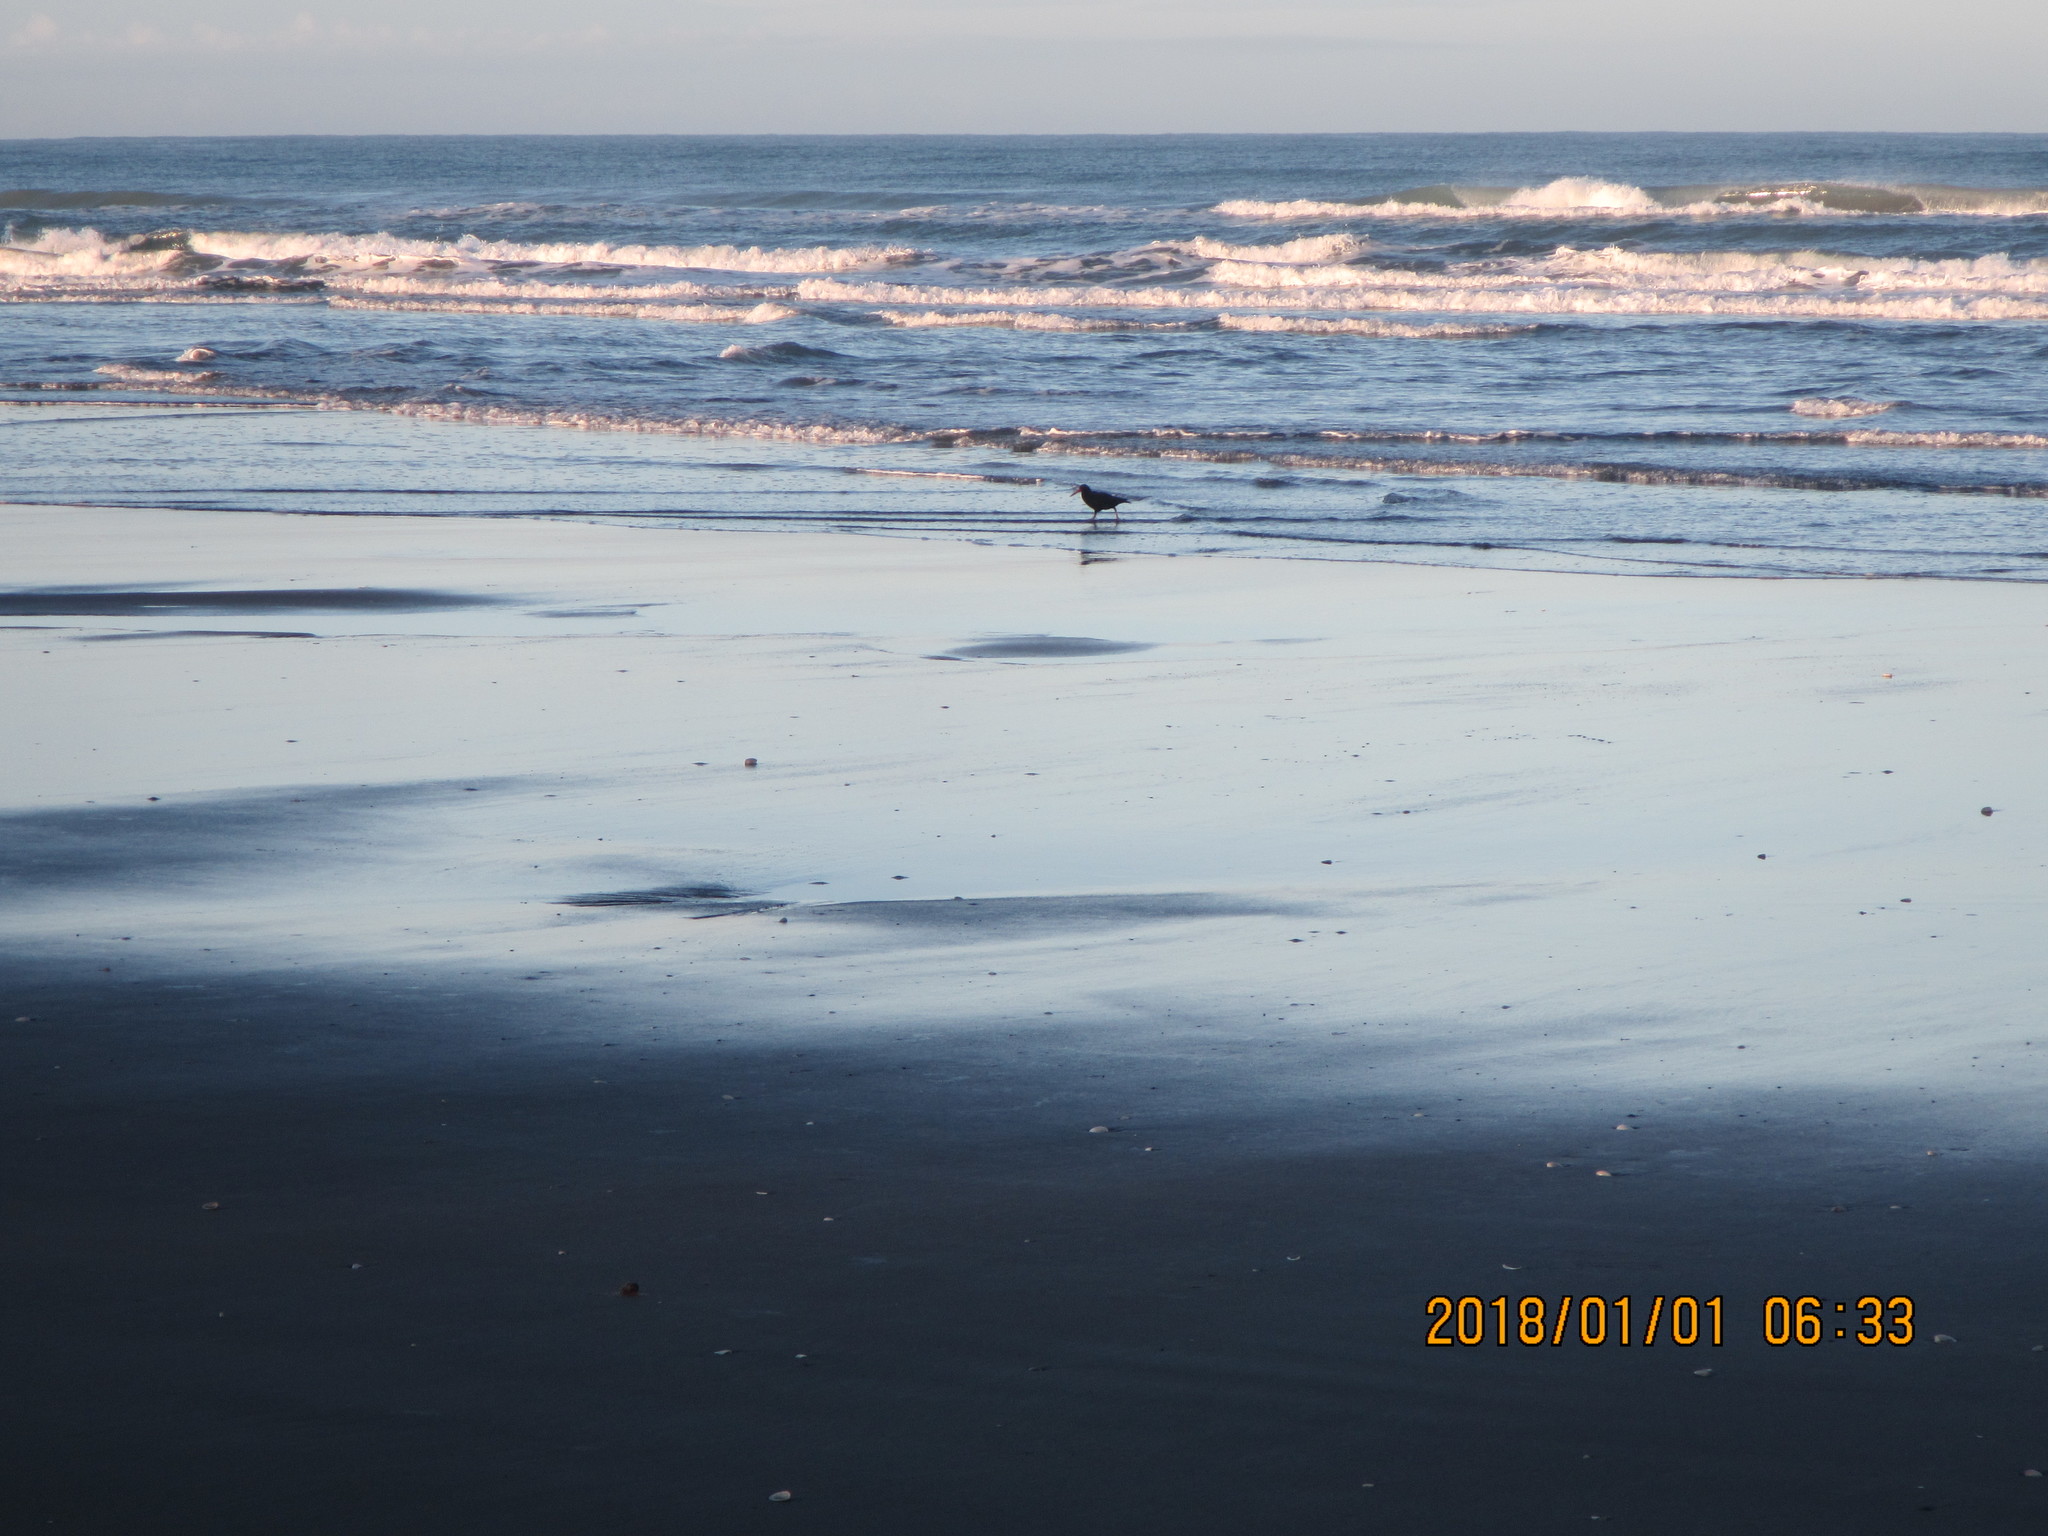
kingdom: Animalia
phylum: Chordata
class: Aves
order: Charadriiformes
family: Haematopodidae
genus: Haematopus
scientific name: Haematopus unicolor
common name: Variable oystercatcher
